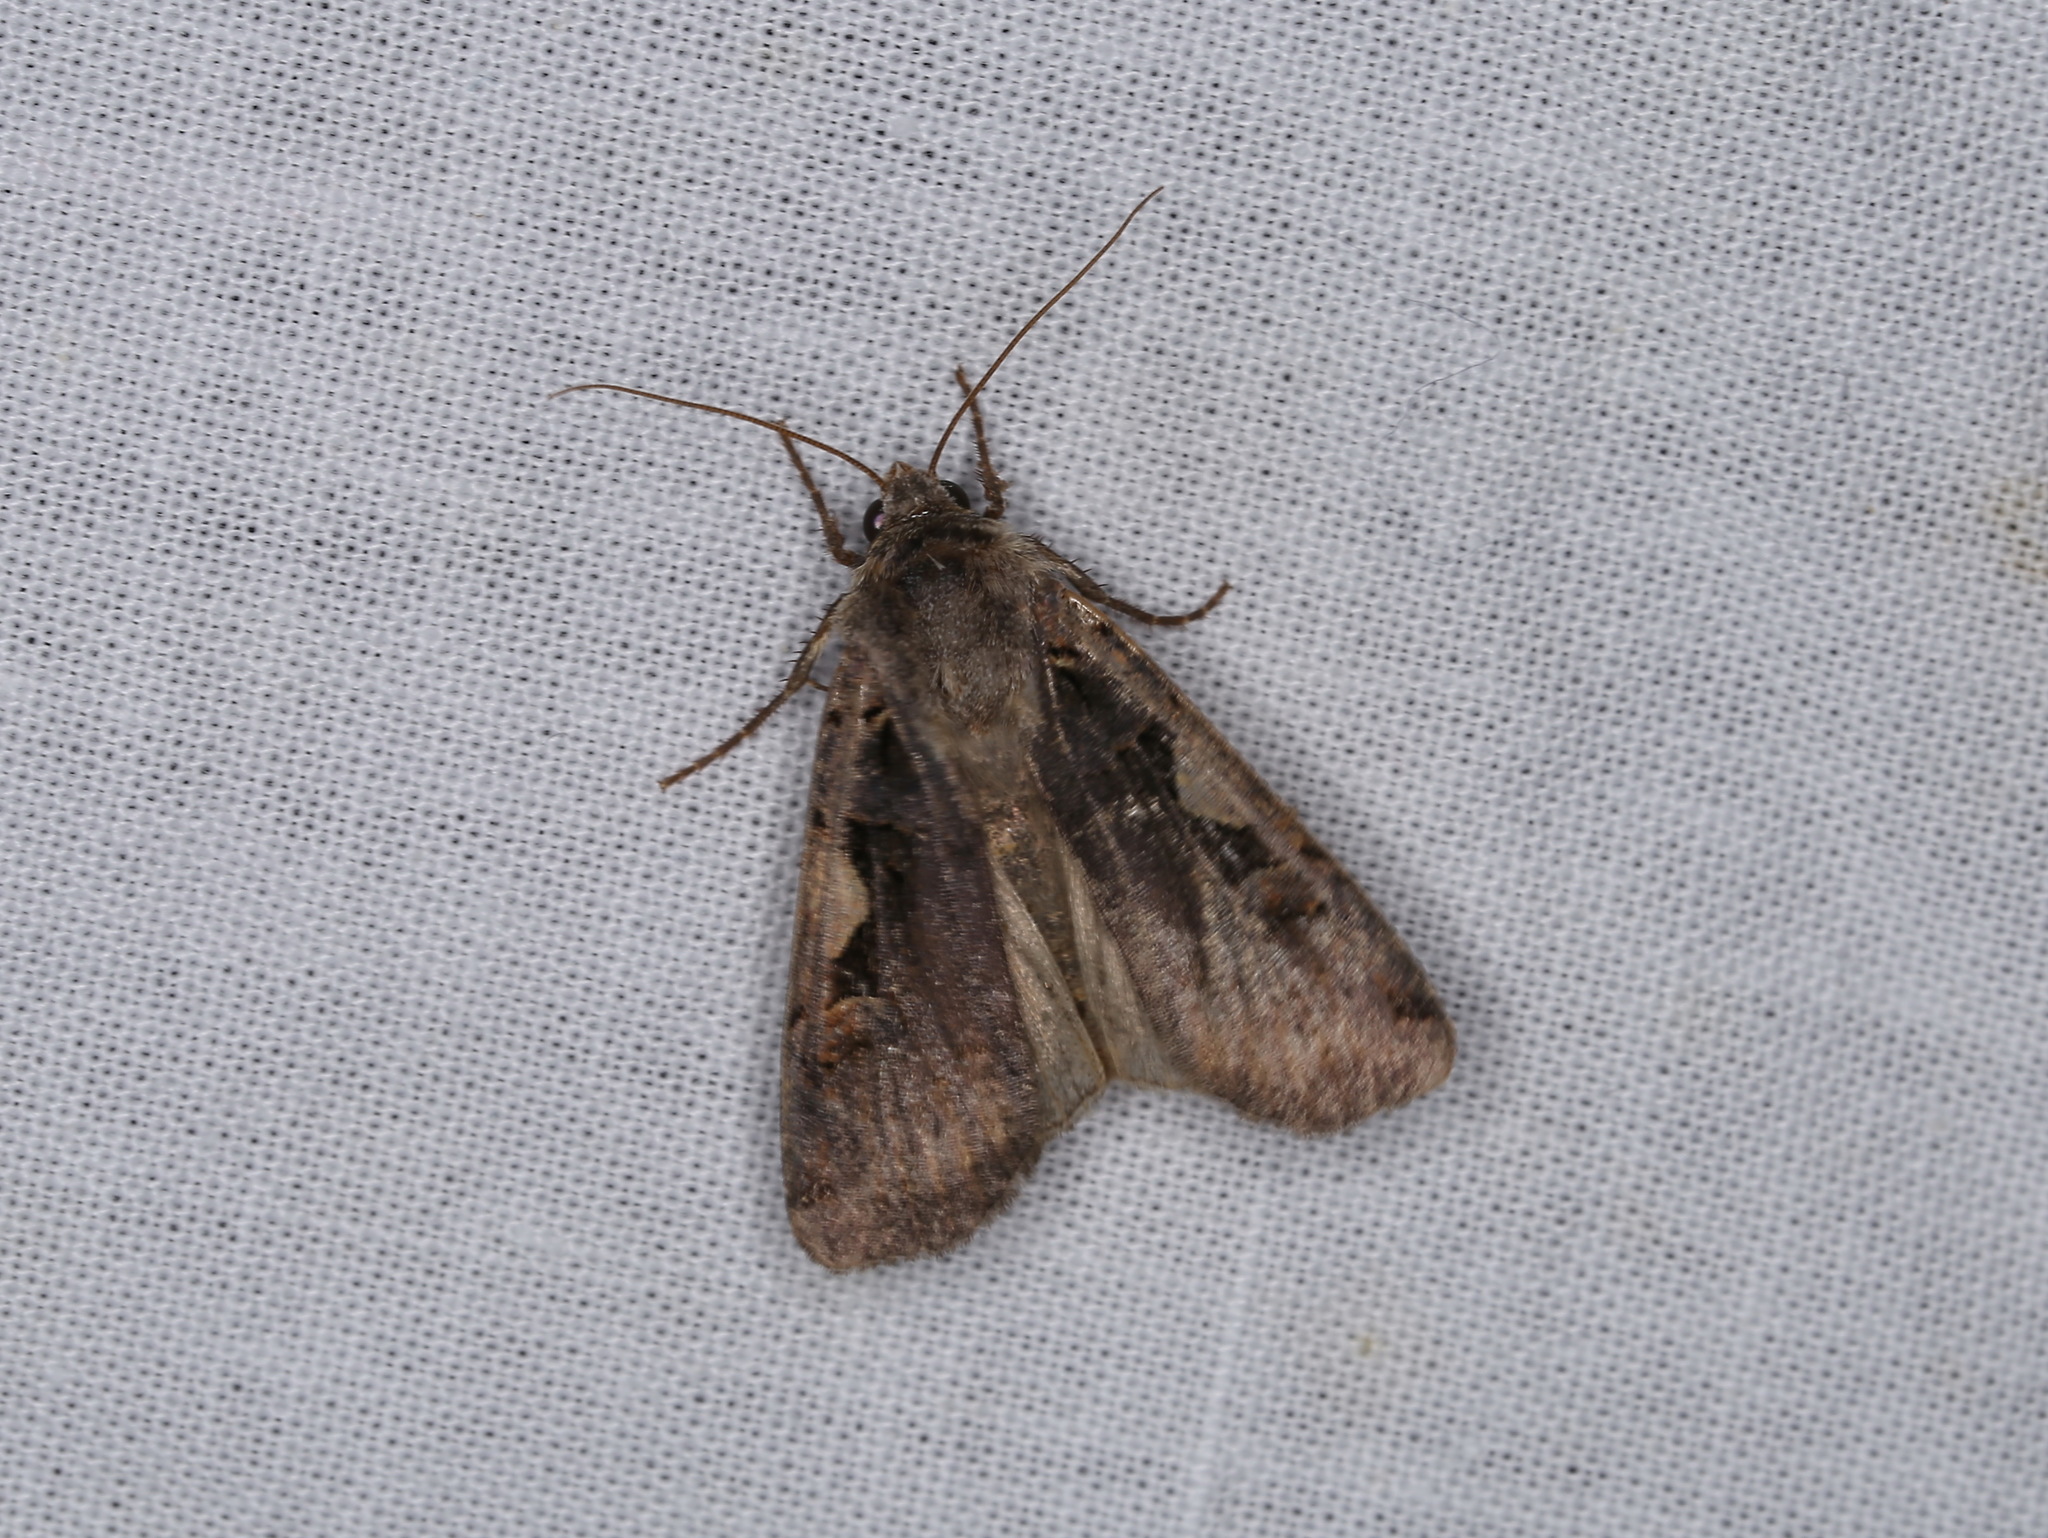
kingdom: Animalia
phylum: Arthropoda
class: Insecta
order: Lepidoptera
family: Noctuidae
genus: Xestia
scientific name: Xestia c-nigrum
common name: Setaceous hebrew character
